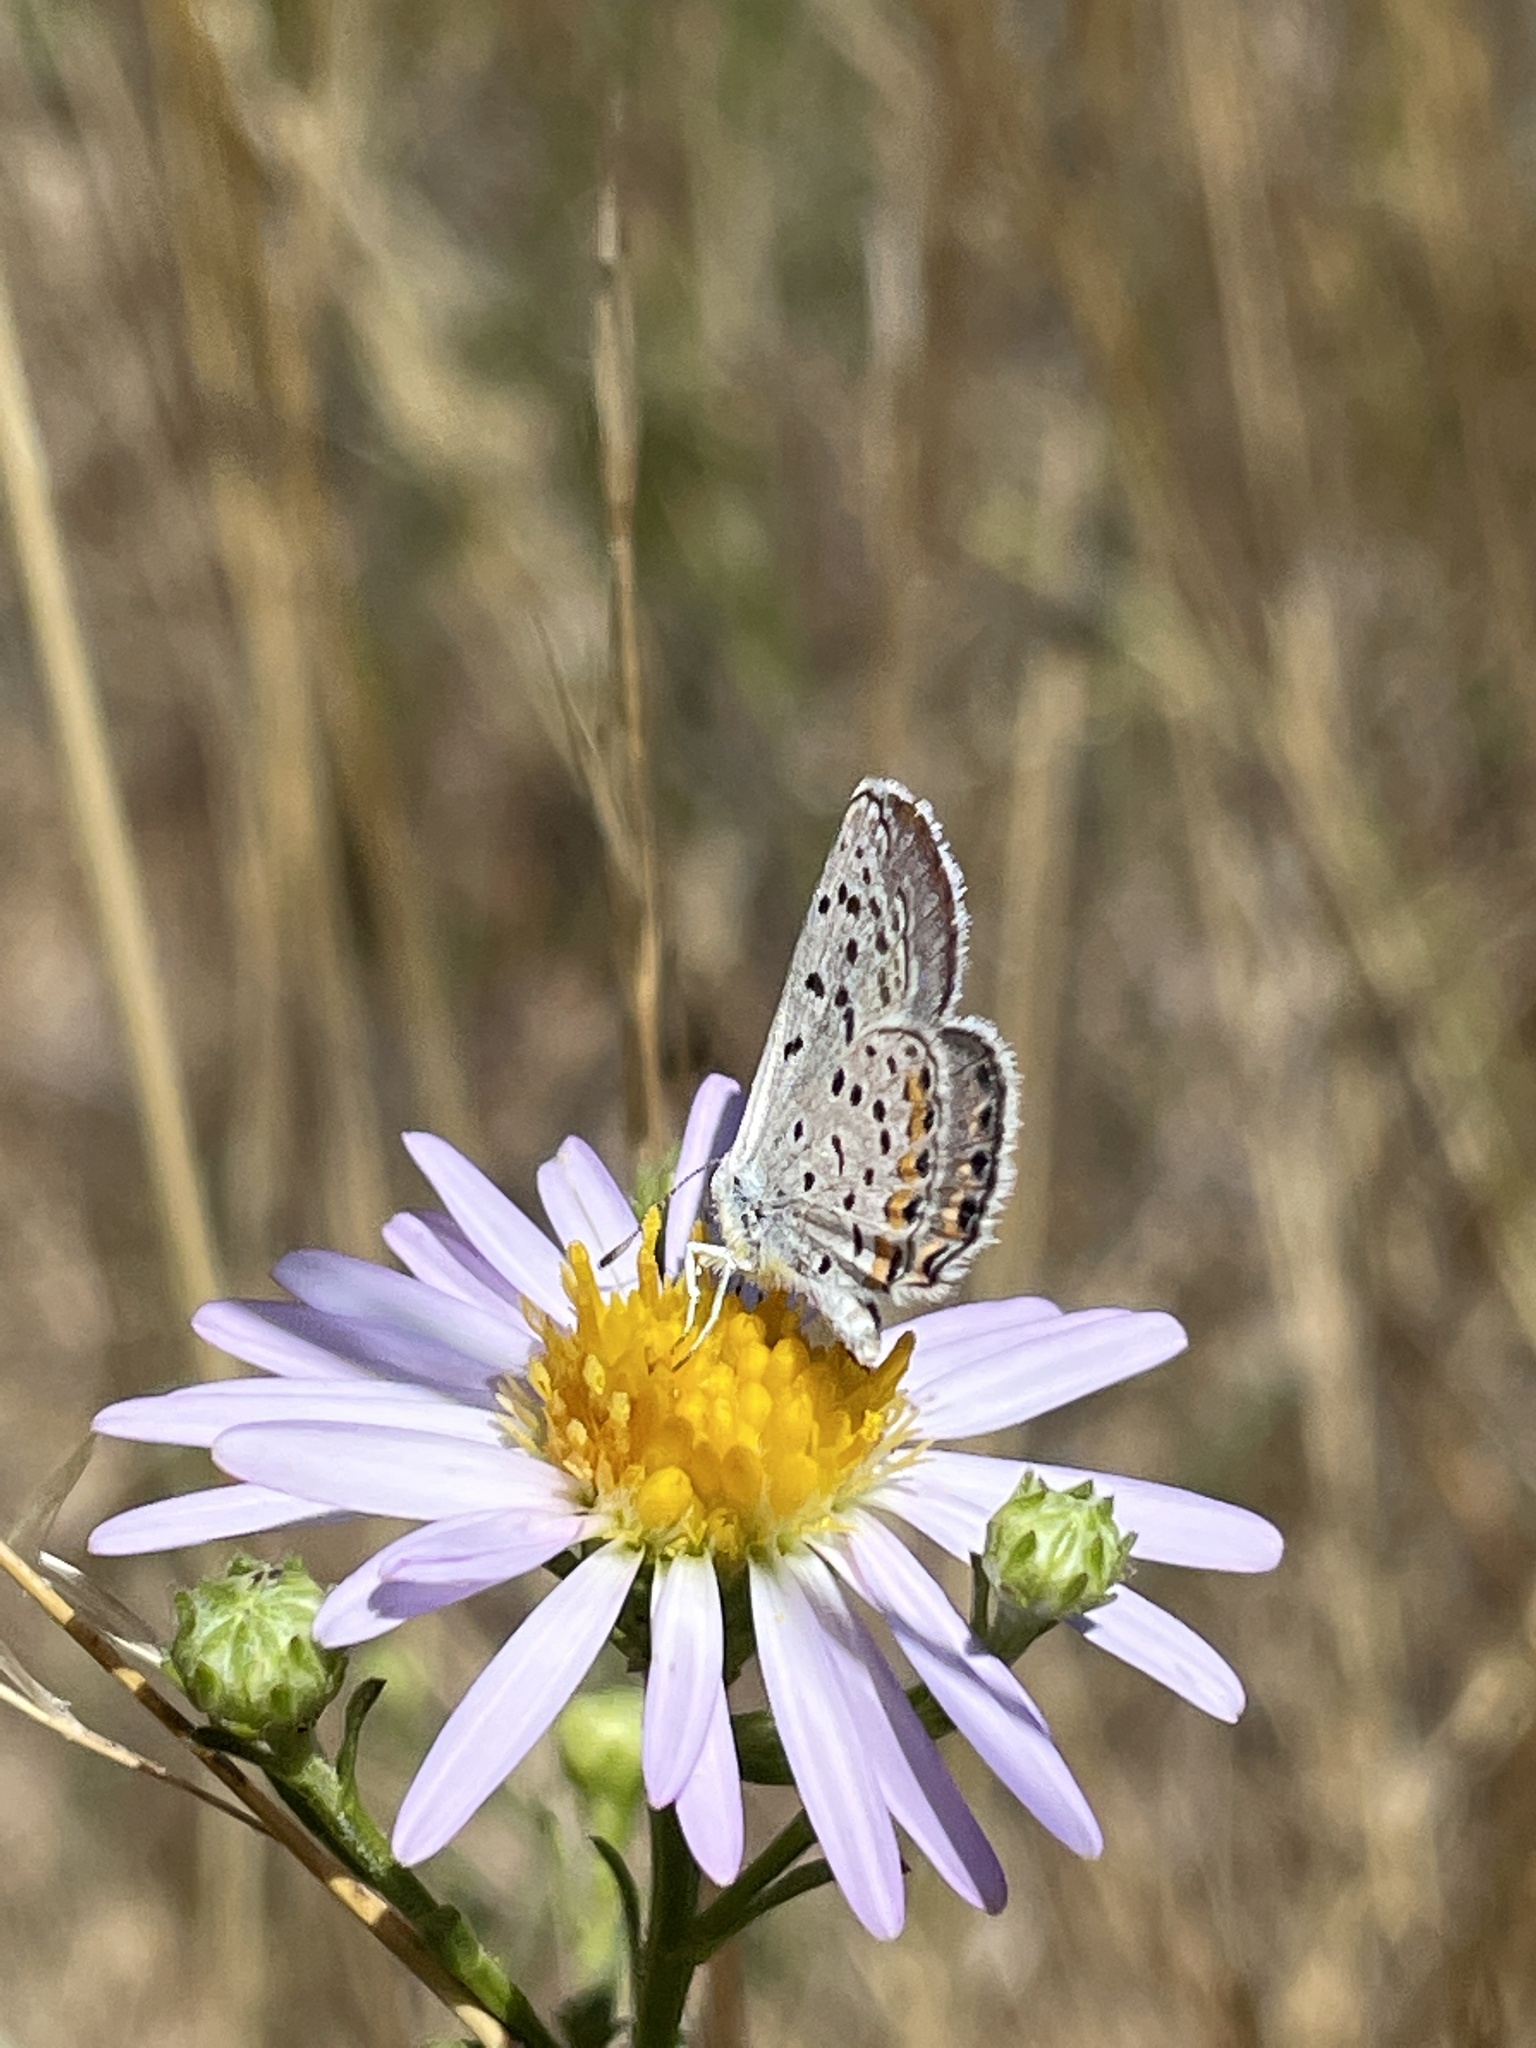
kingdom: Animalia
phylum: Arthropoda
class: Insecta
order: Lepidoptera
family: Lycaenidae
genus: Icaricia
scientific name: Icaricia acmon
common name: Acmon blue
